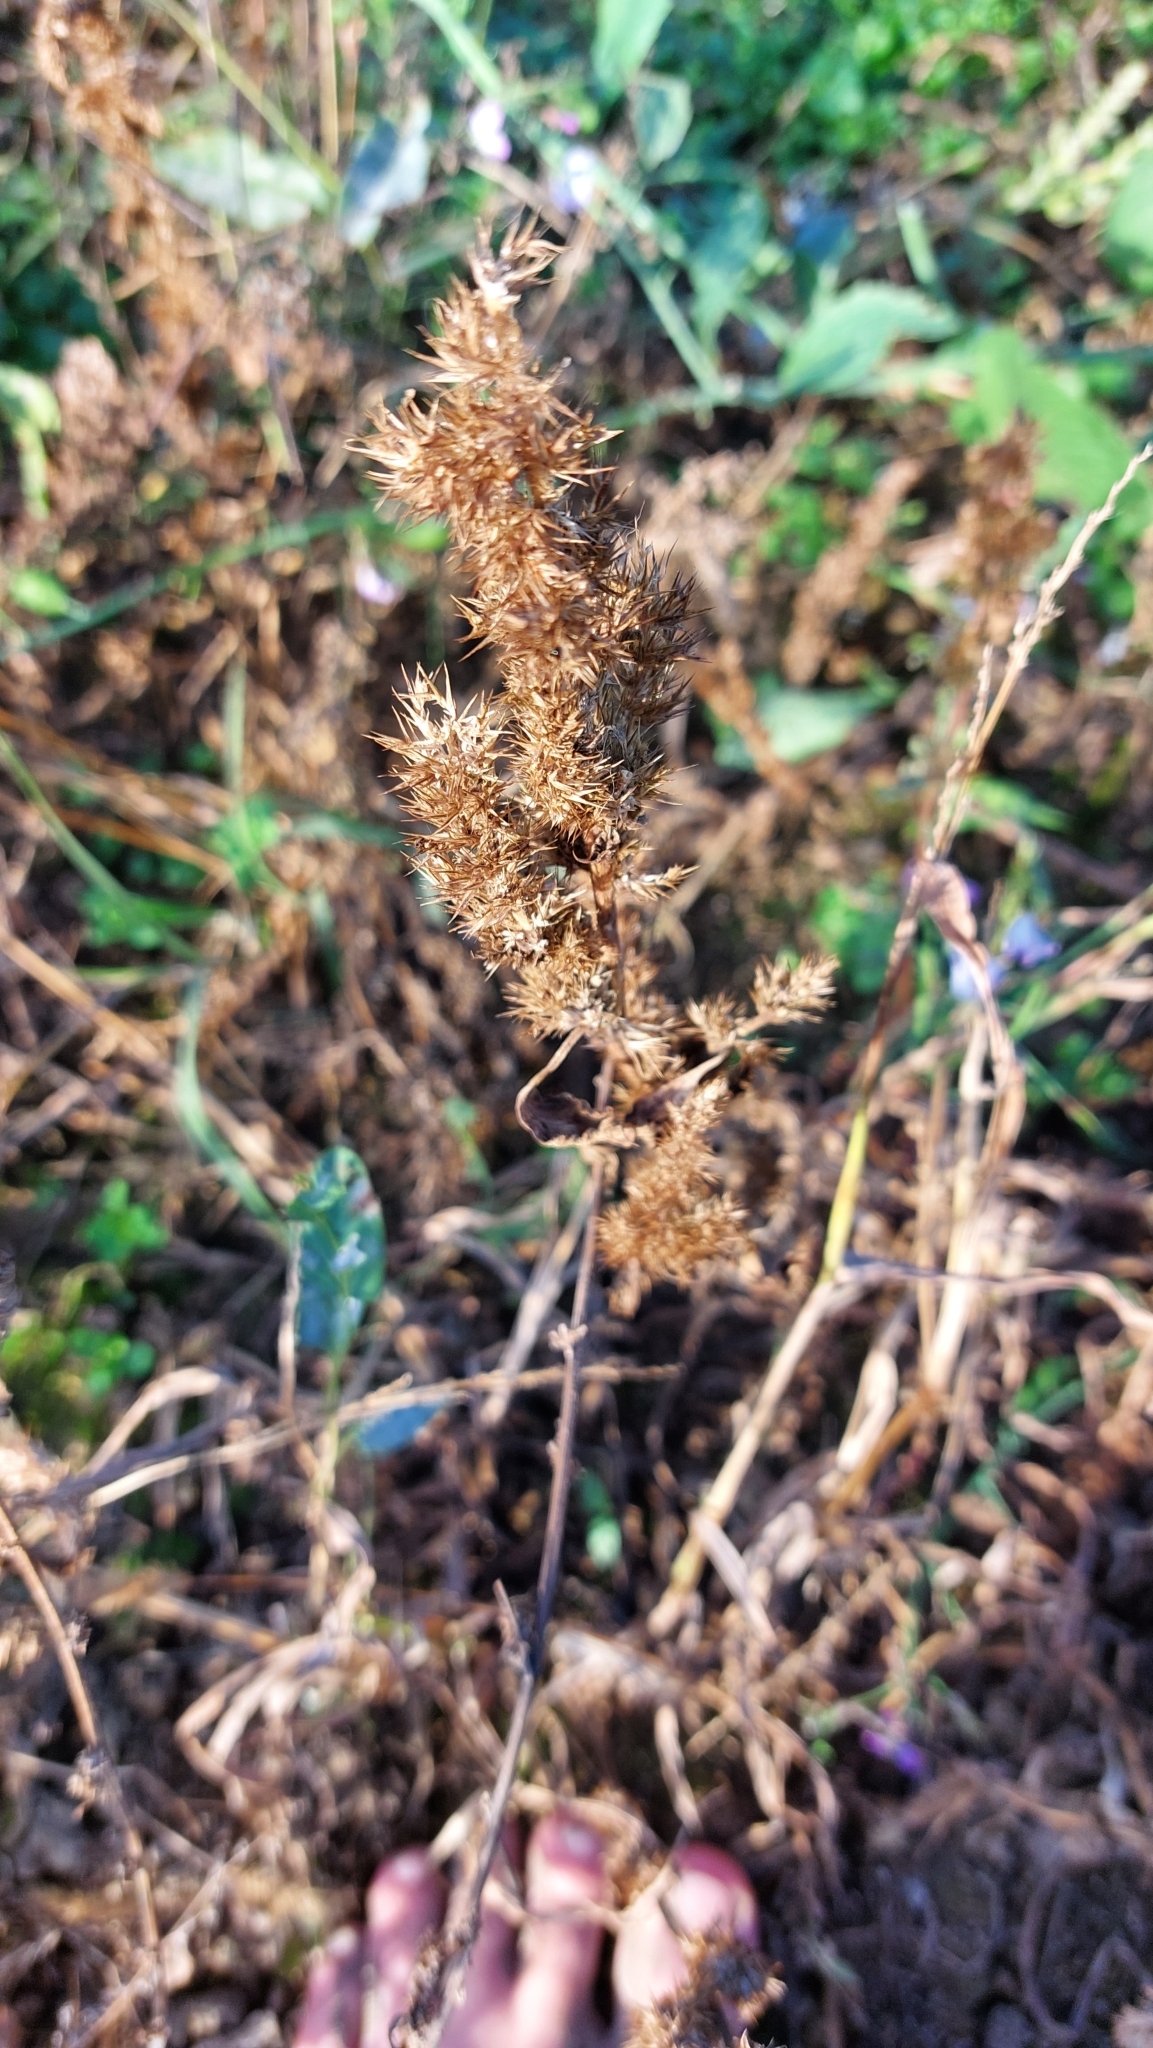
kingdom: Plantae
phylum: Tracheophyta
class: Magnoliopsida
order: Caryophyllales
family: Amaranthaceae
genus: Amaranthus
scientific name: Amaranthus retroflexus
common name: Redroot amaranth
